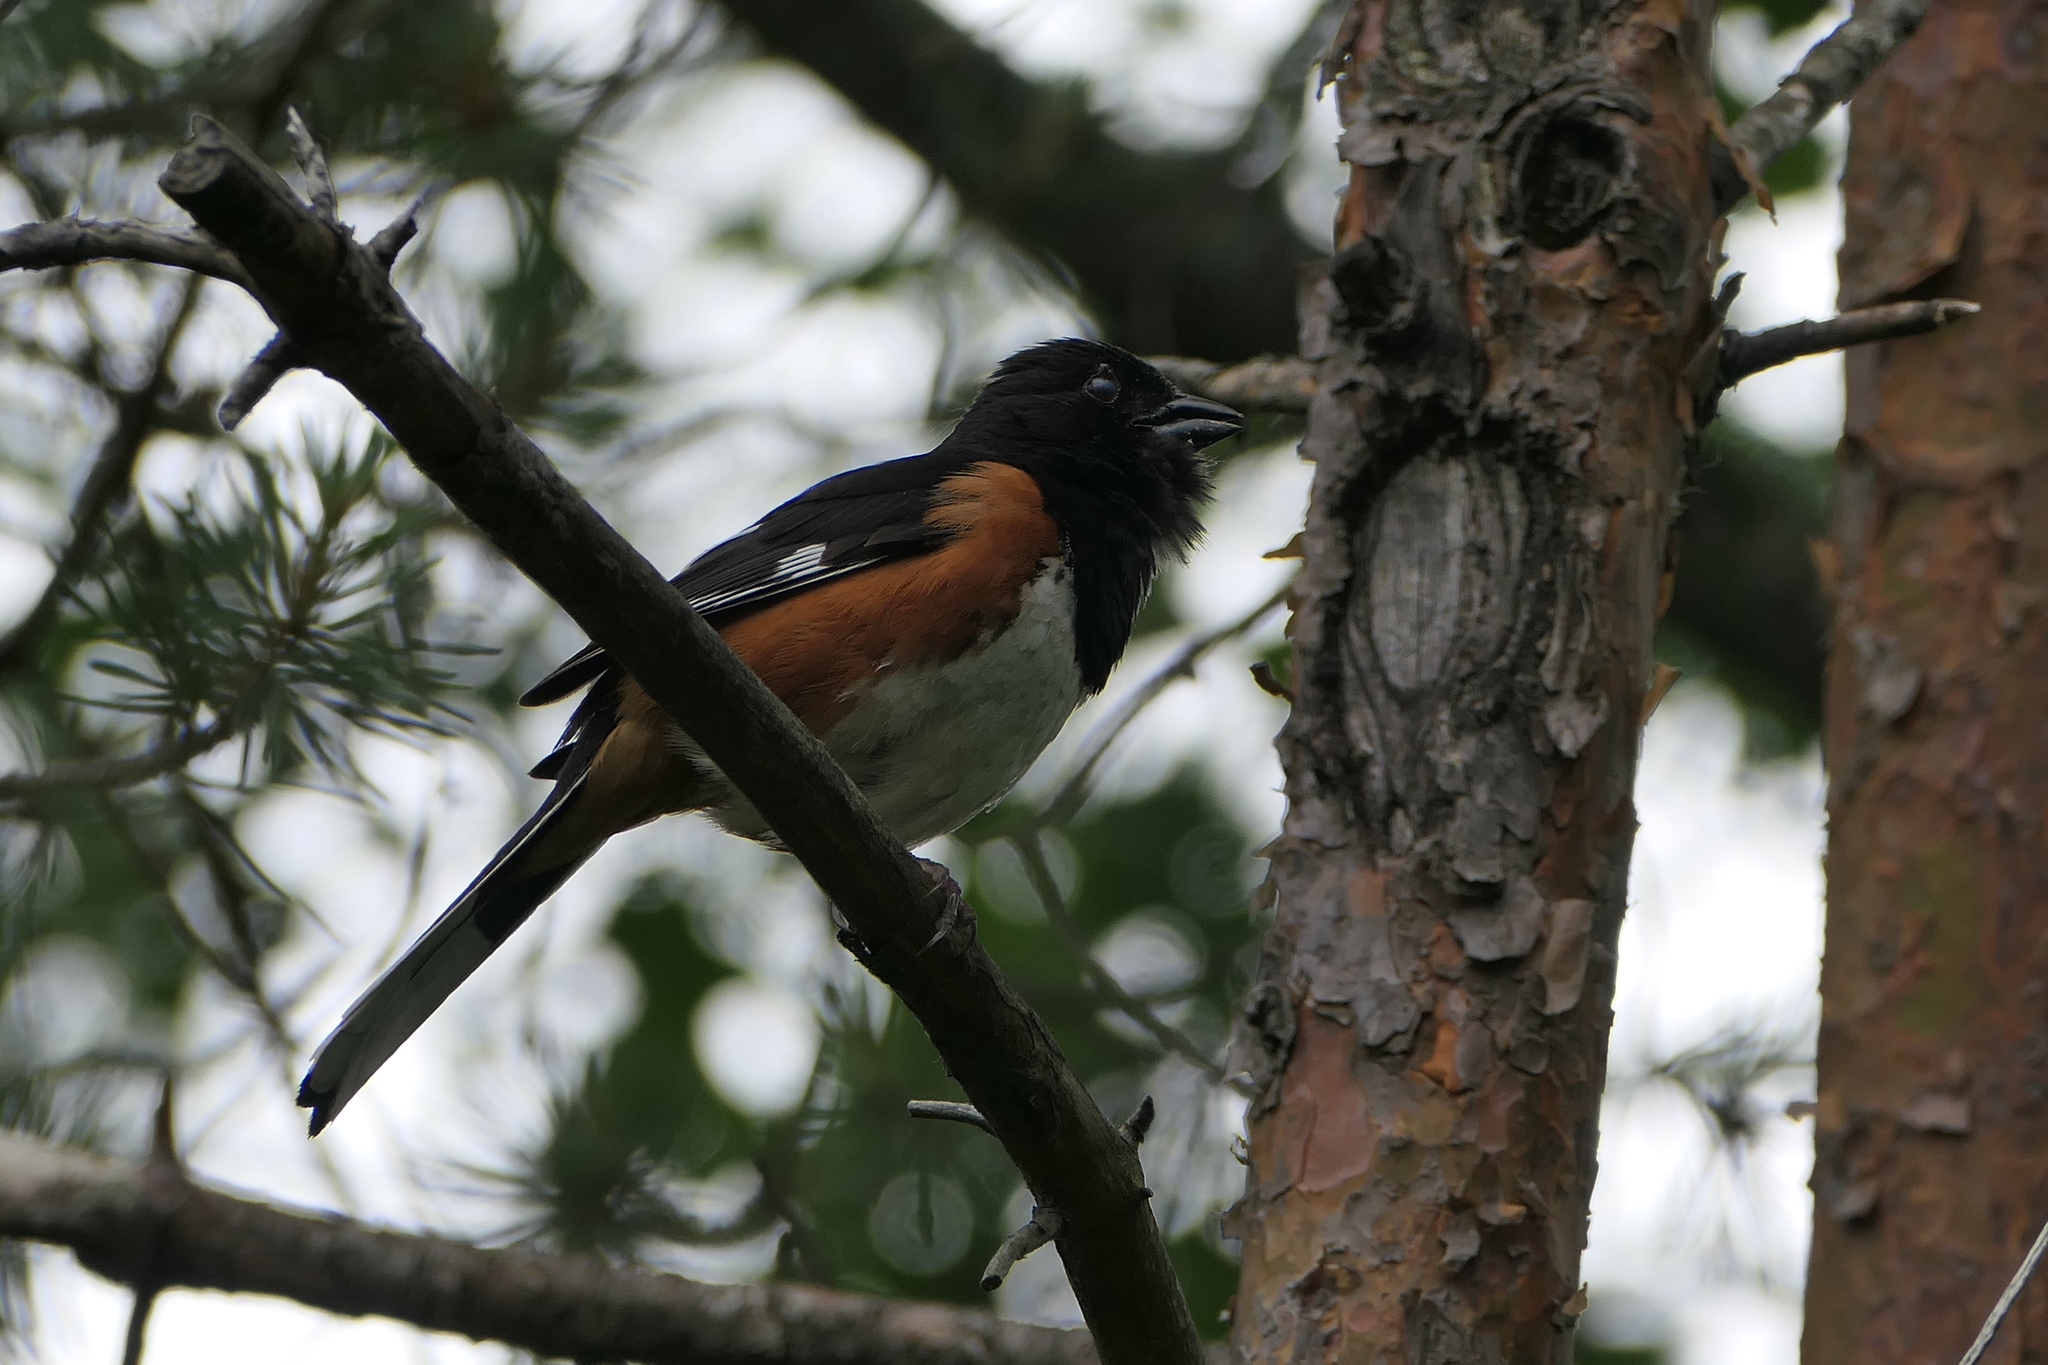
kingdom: Animalia
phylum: Chordata
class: Aves
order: Passeriformes
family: Passerellidae
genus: Pipilo
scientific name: Pipilo erythrophthalmus
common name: Eastern towhee
